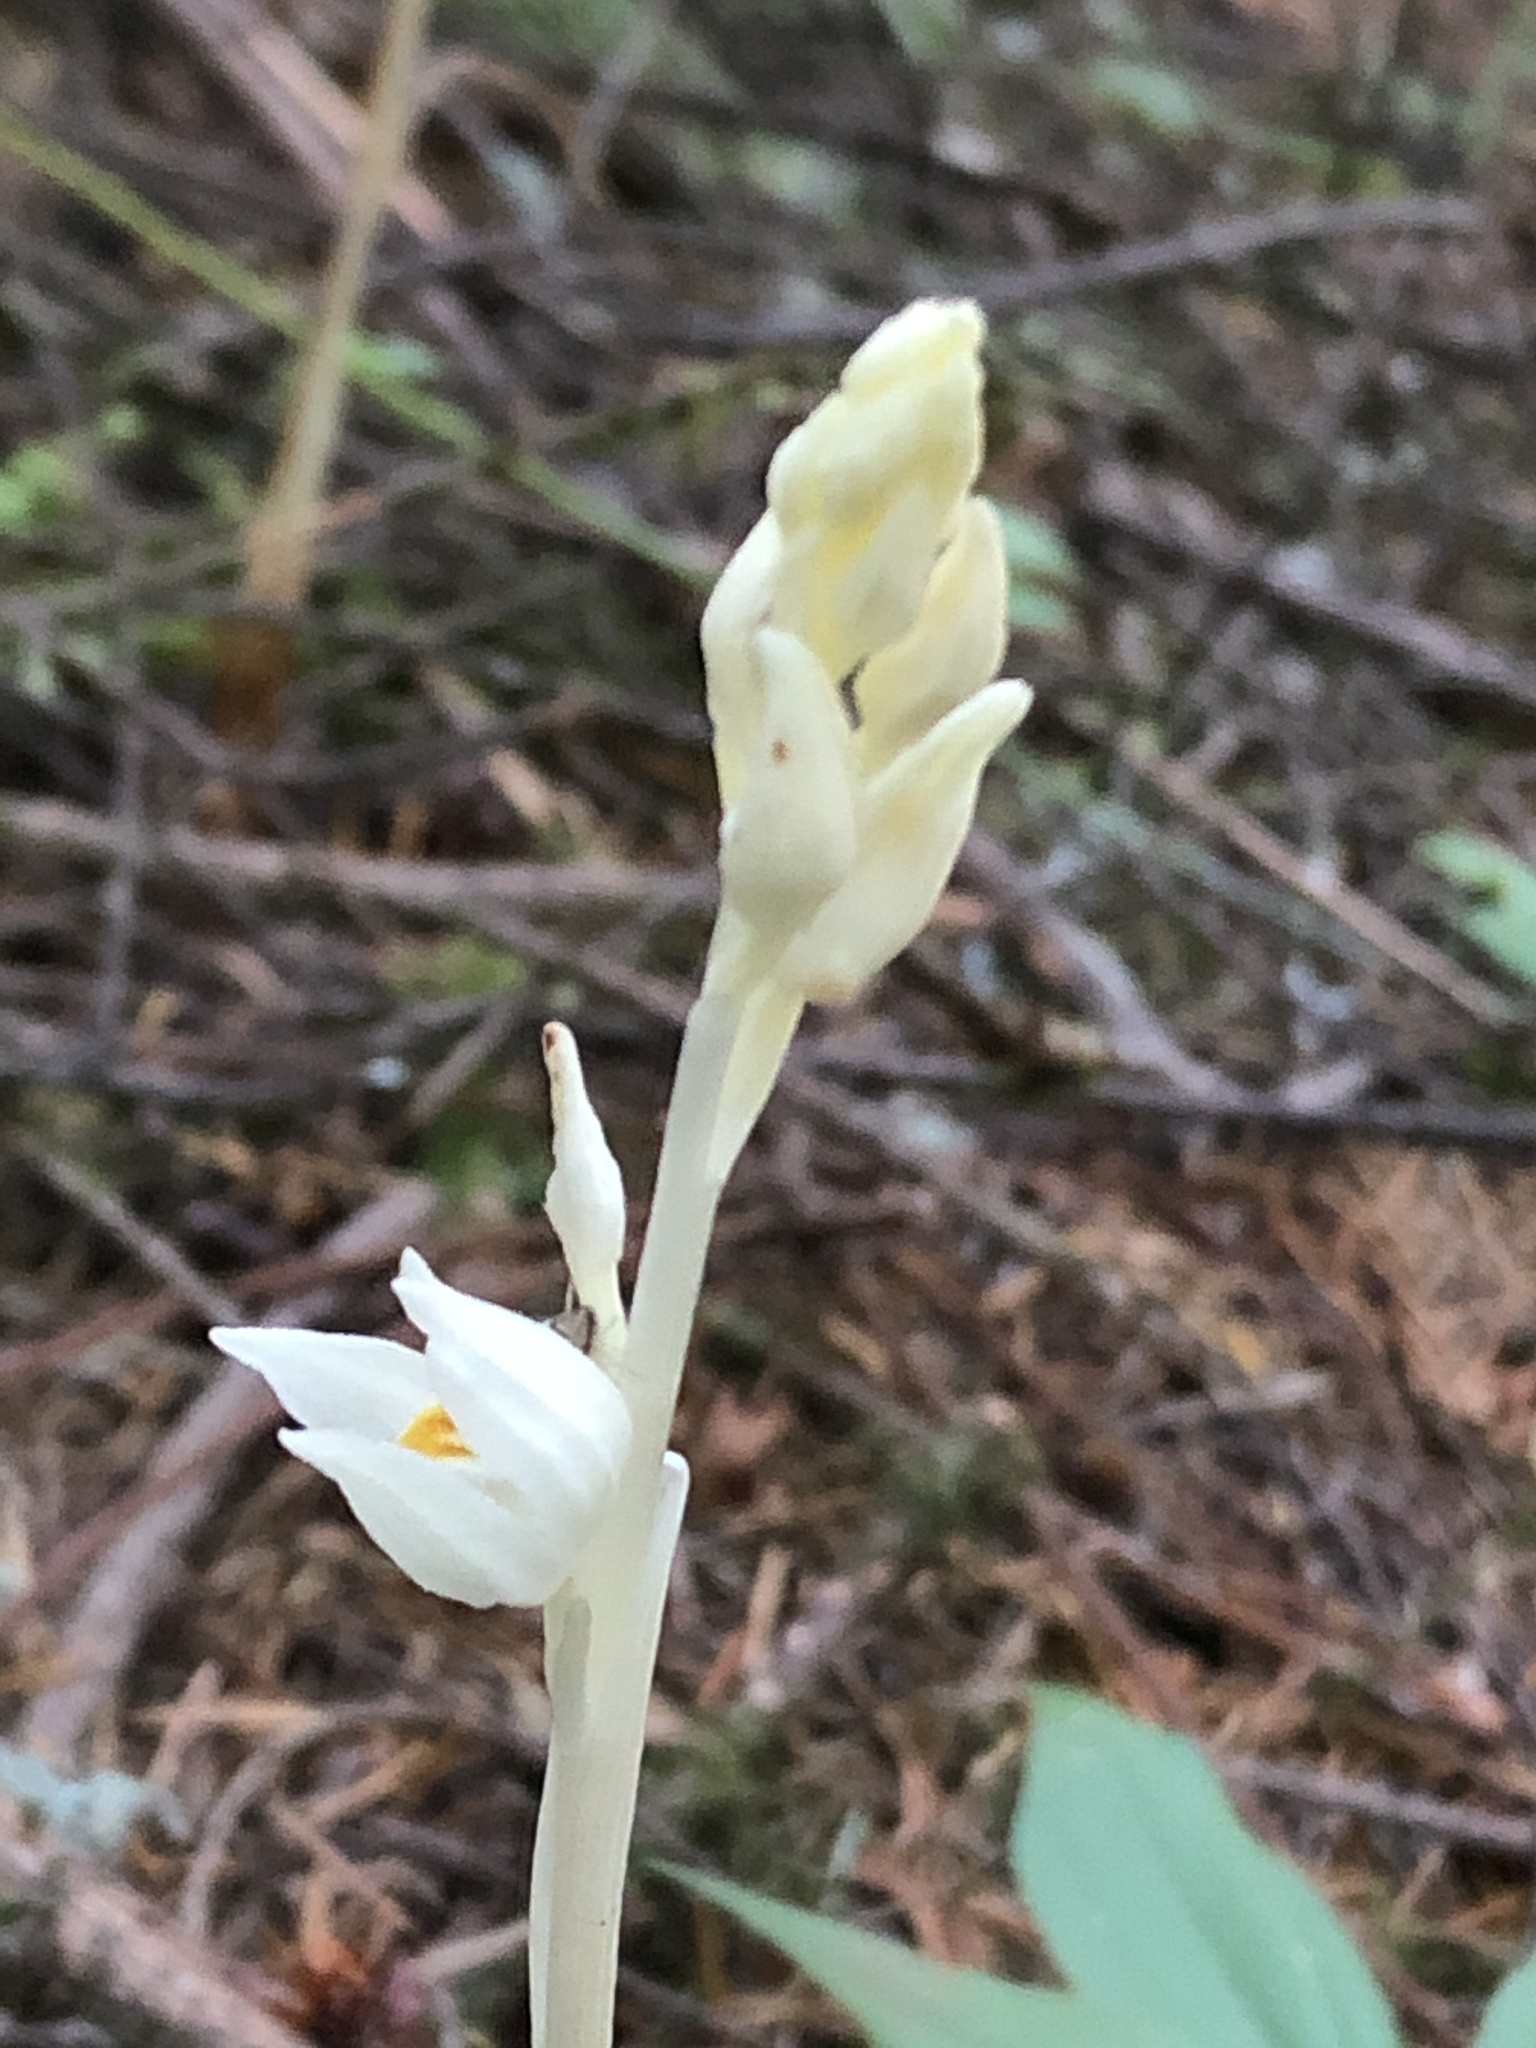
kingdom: Plantae
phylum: Tracheophyta
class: Liliopsida
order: Asparagales
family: Orchidaceae
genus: Cephalanthera
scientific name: Cephalanthera austiniae
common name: Phantom orchid
